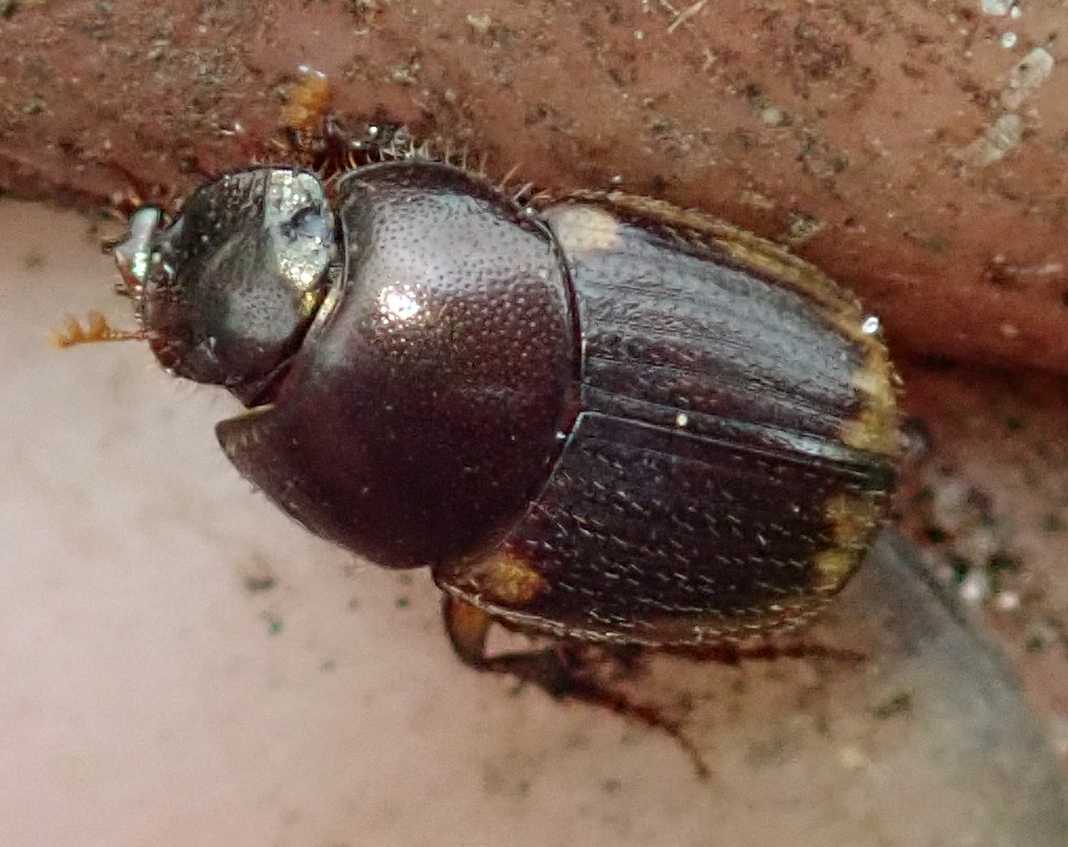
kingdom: Animalia
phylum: Arthropoda
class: Insecta
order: Coleoptera
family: Scarabaeidae
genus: Onthophagus
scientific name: Onthophagus vinctus
